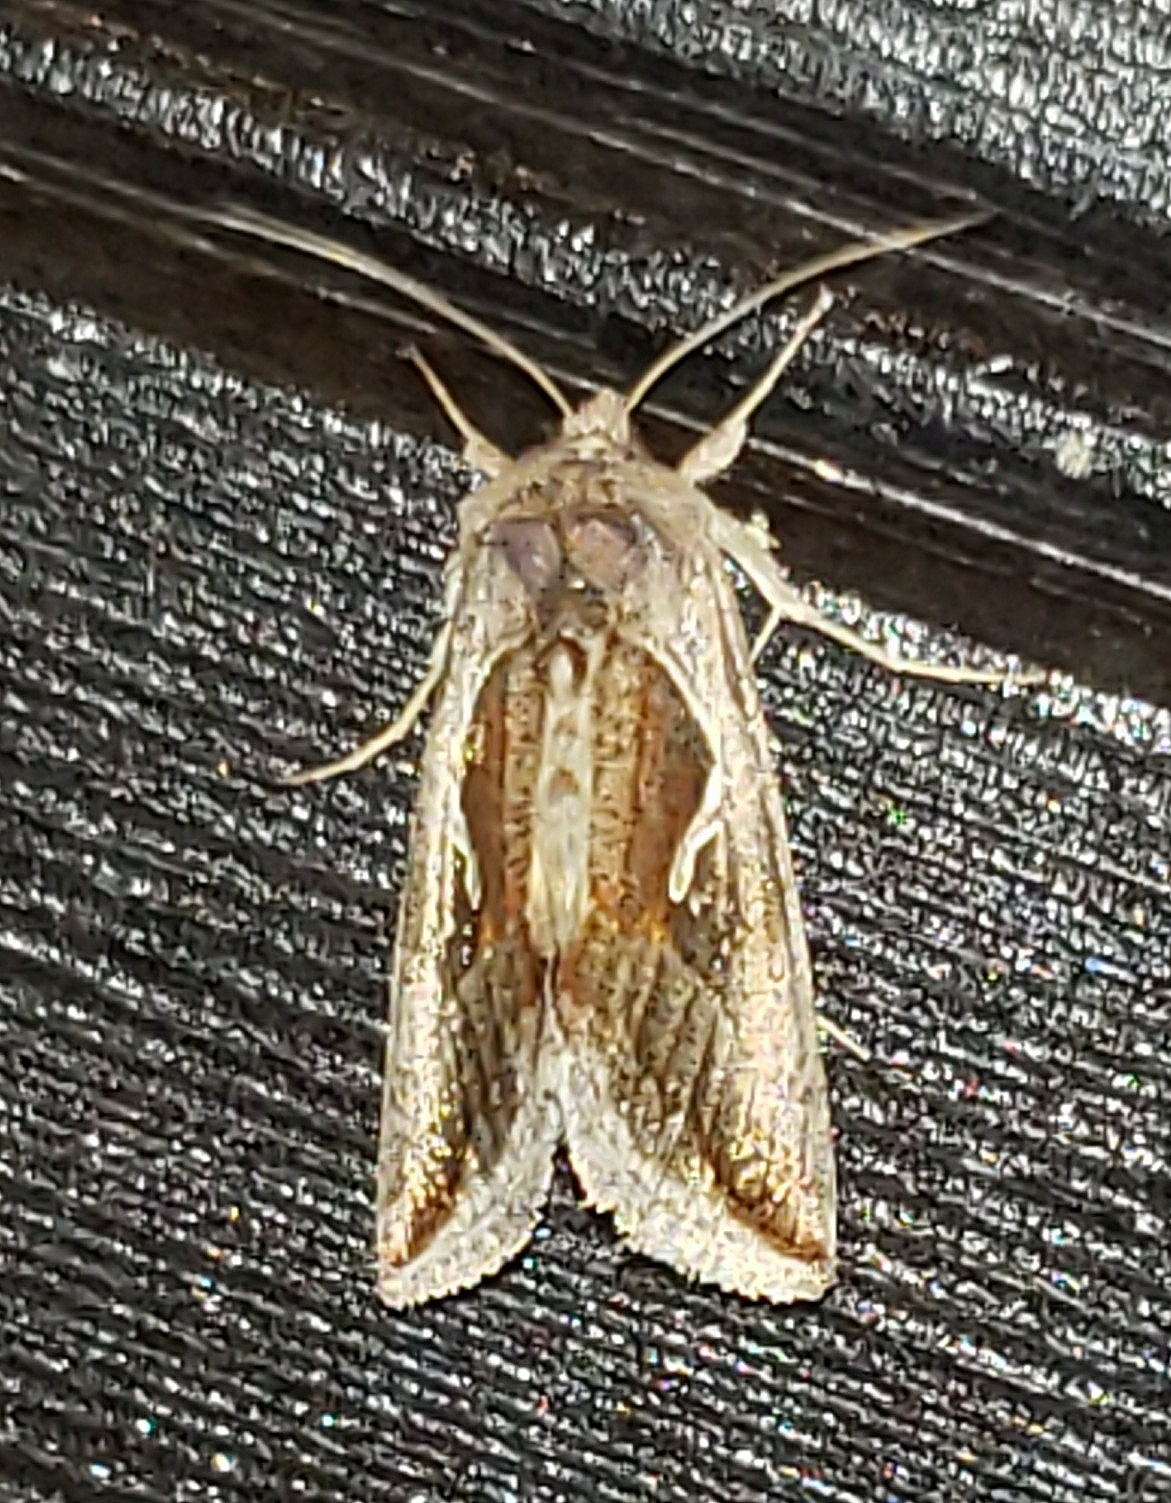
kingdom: Animalia
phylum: Arthropoda
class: Insecta
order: Lepidoptera
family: Noctuidae
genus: Anagrapha
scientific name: Anagrapha falcifera
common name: Celery looper
